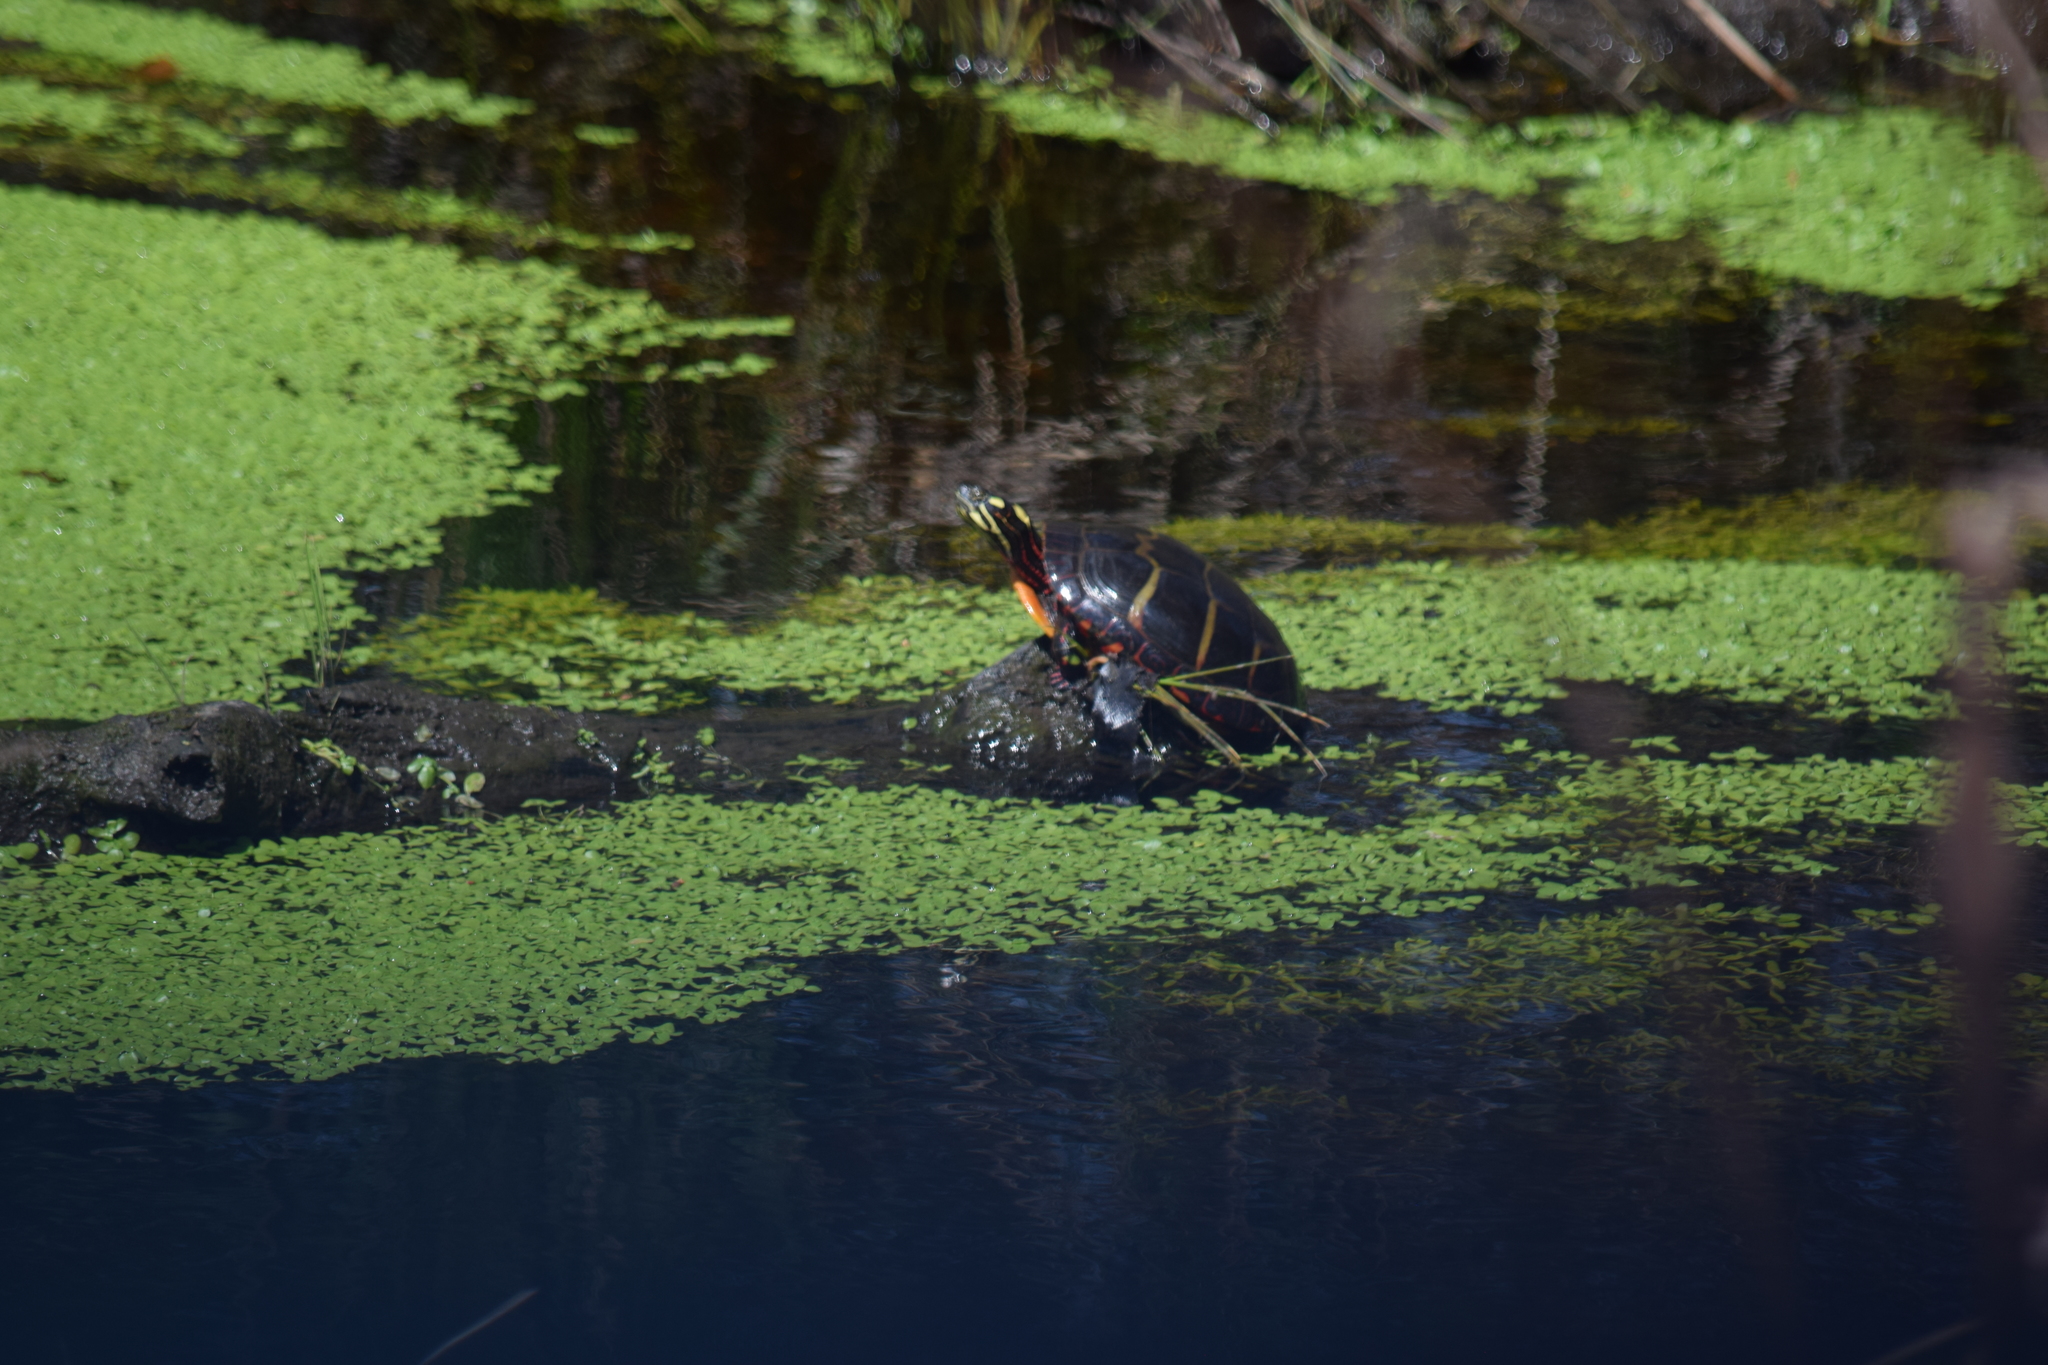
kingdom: Animalia
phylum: Chordata
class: Testudines
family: Emydidae
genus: Chrysemys
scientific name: Chrysemys picta
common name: Painted turtle
